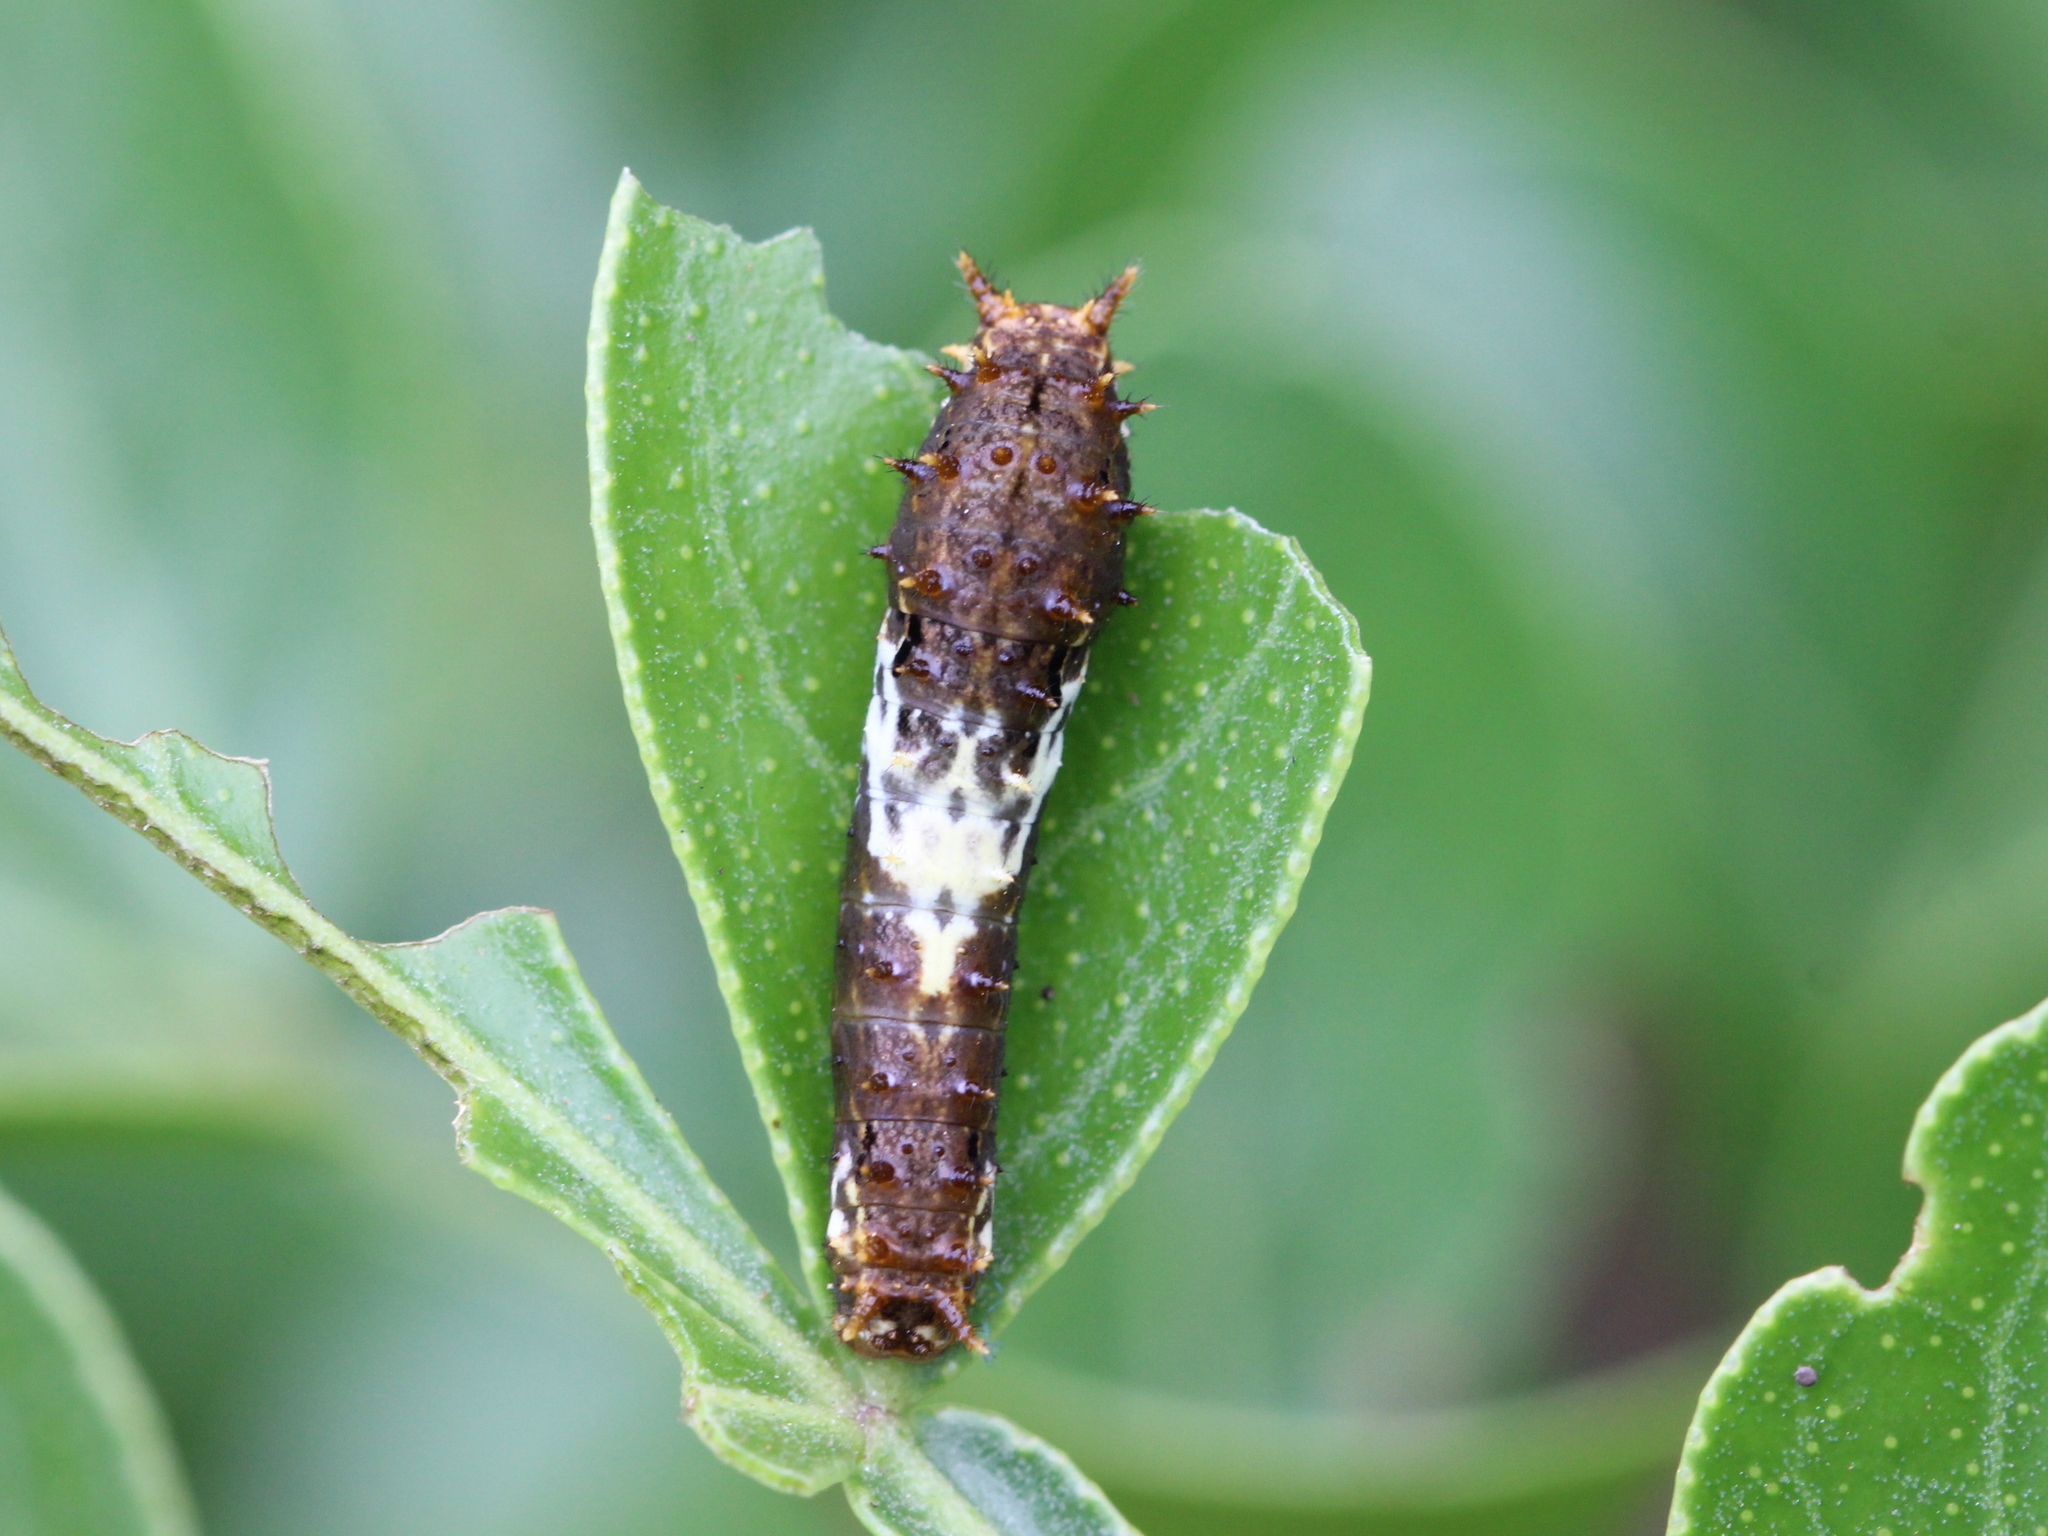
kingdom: Animalia
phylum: Arthropoda
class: Insecta
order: Lepidoptera
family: Papilionidae
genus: Papilio
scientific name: Papilio demoleus
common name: Lime butterfly
